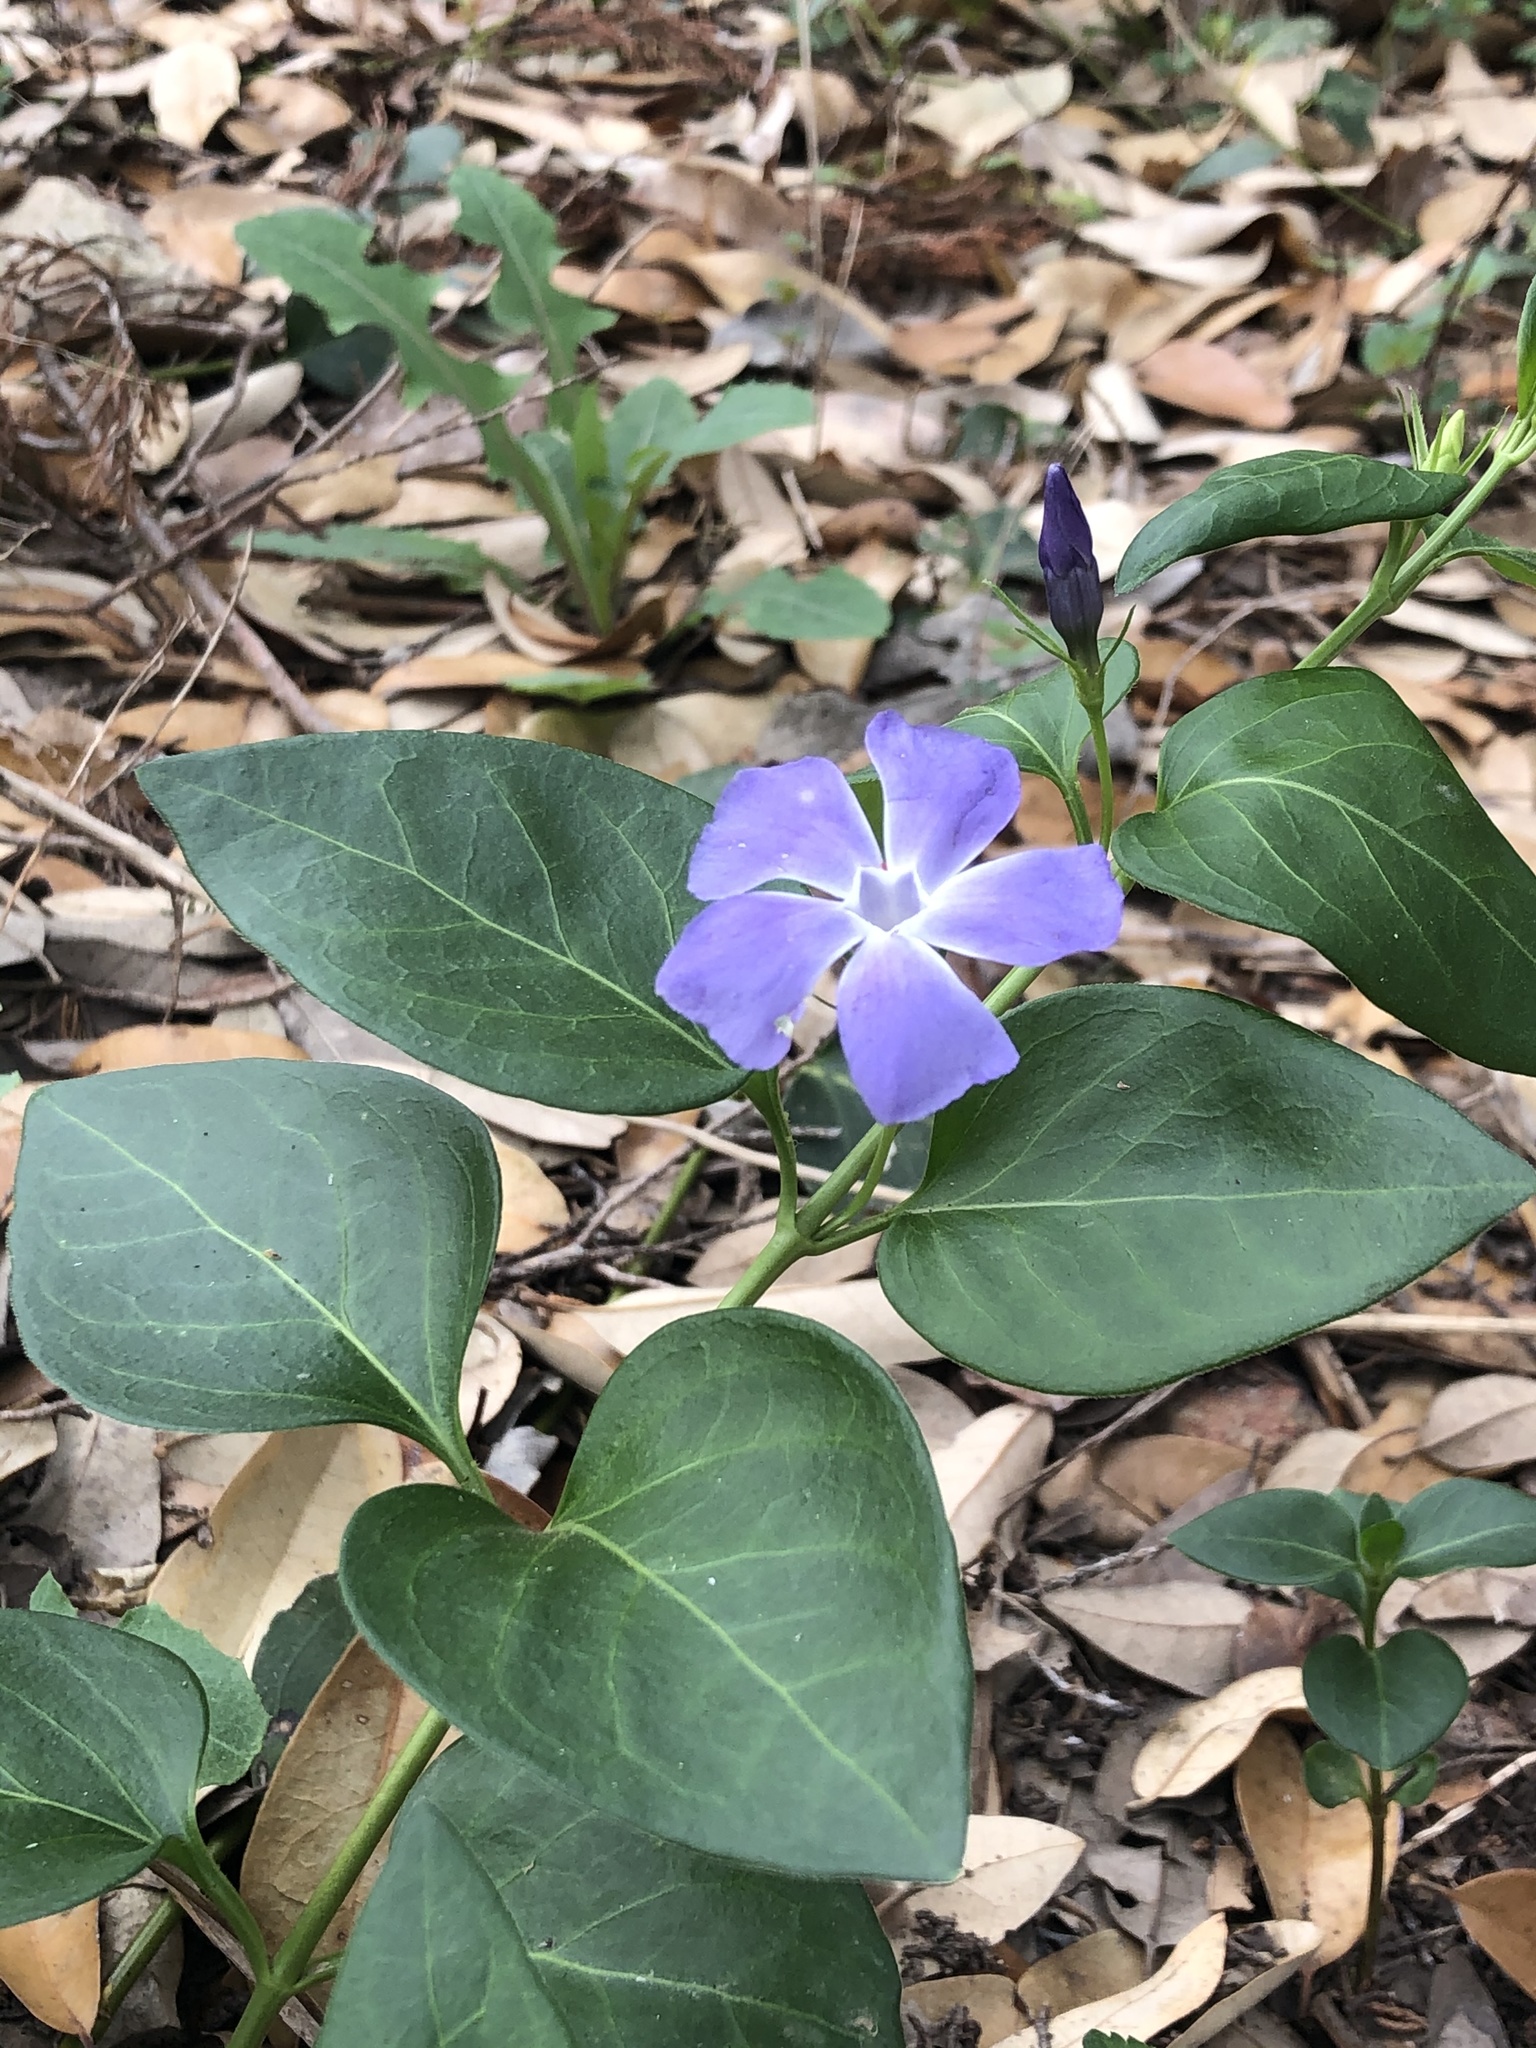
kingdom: Plantae
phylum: Tracheophyta
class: Magnoliopsida
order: Gentianales
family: Apocynaceae
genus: Vinca
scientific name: Vinca major
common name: Greater periwinkle
